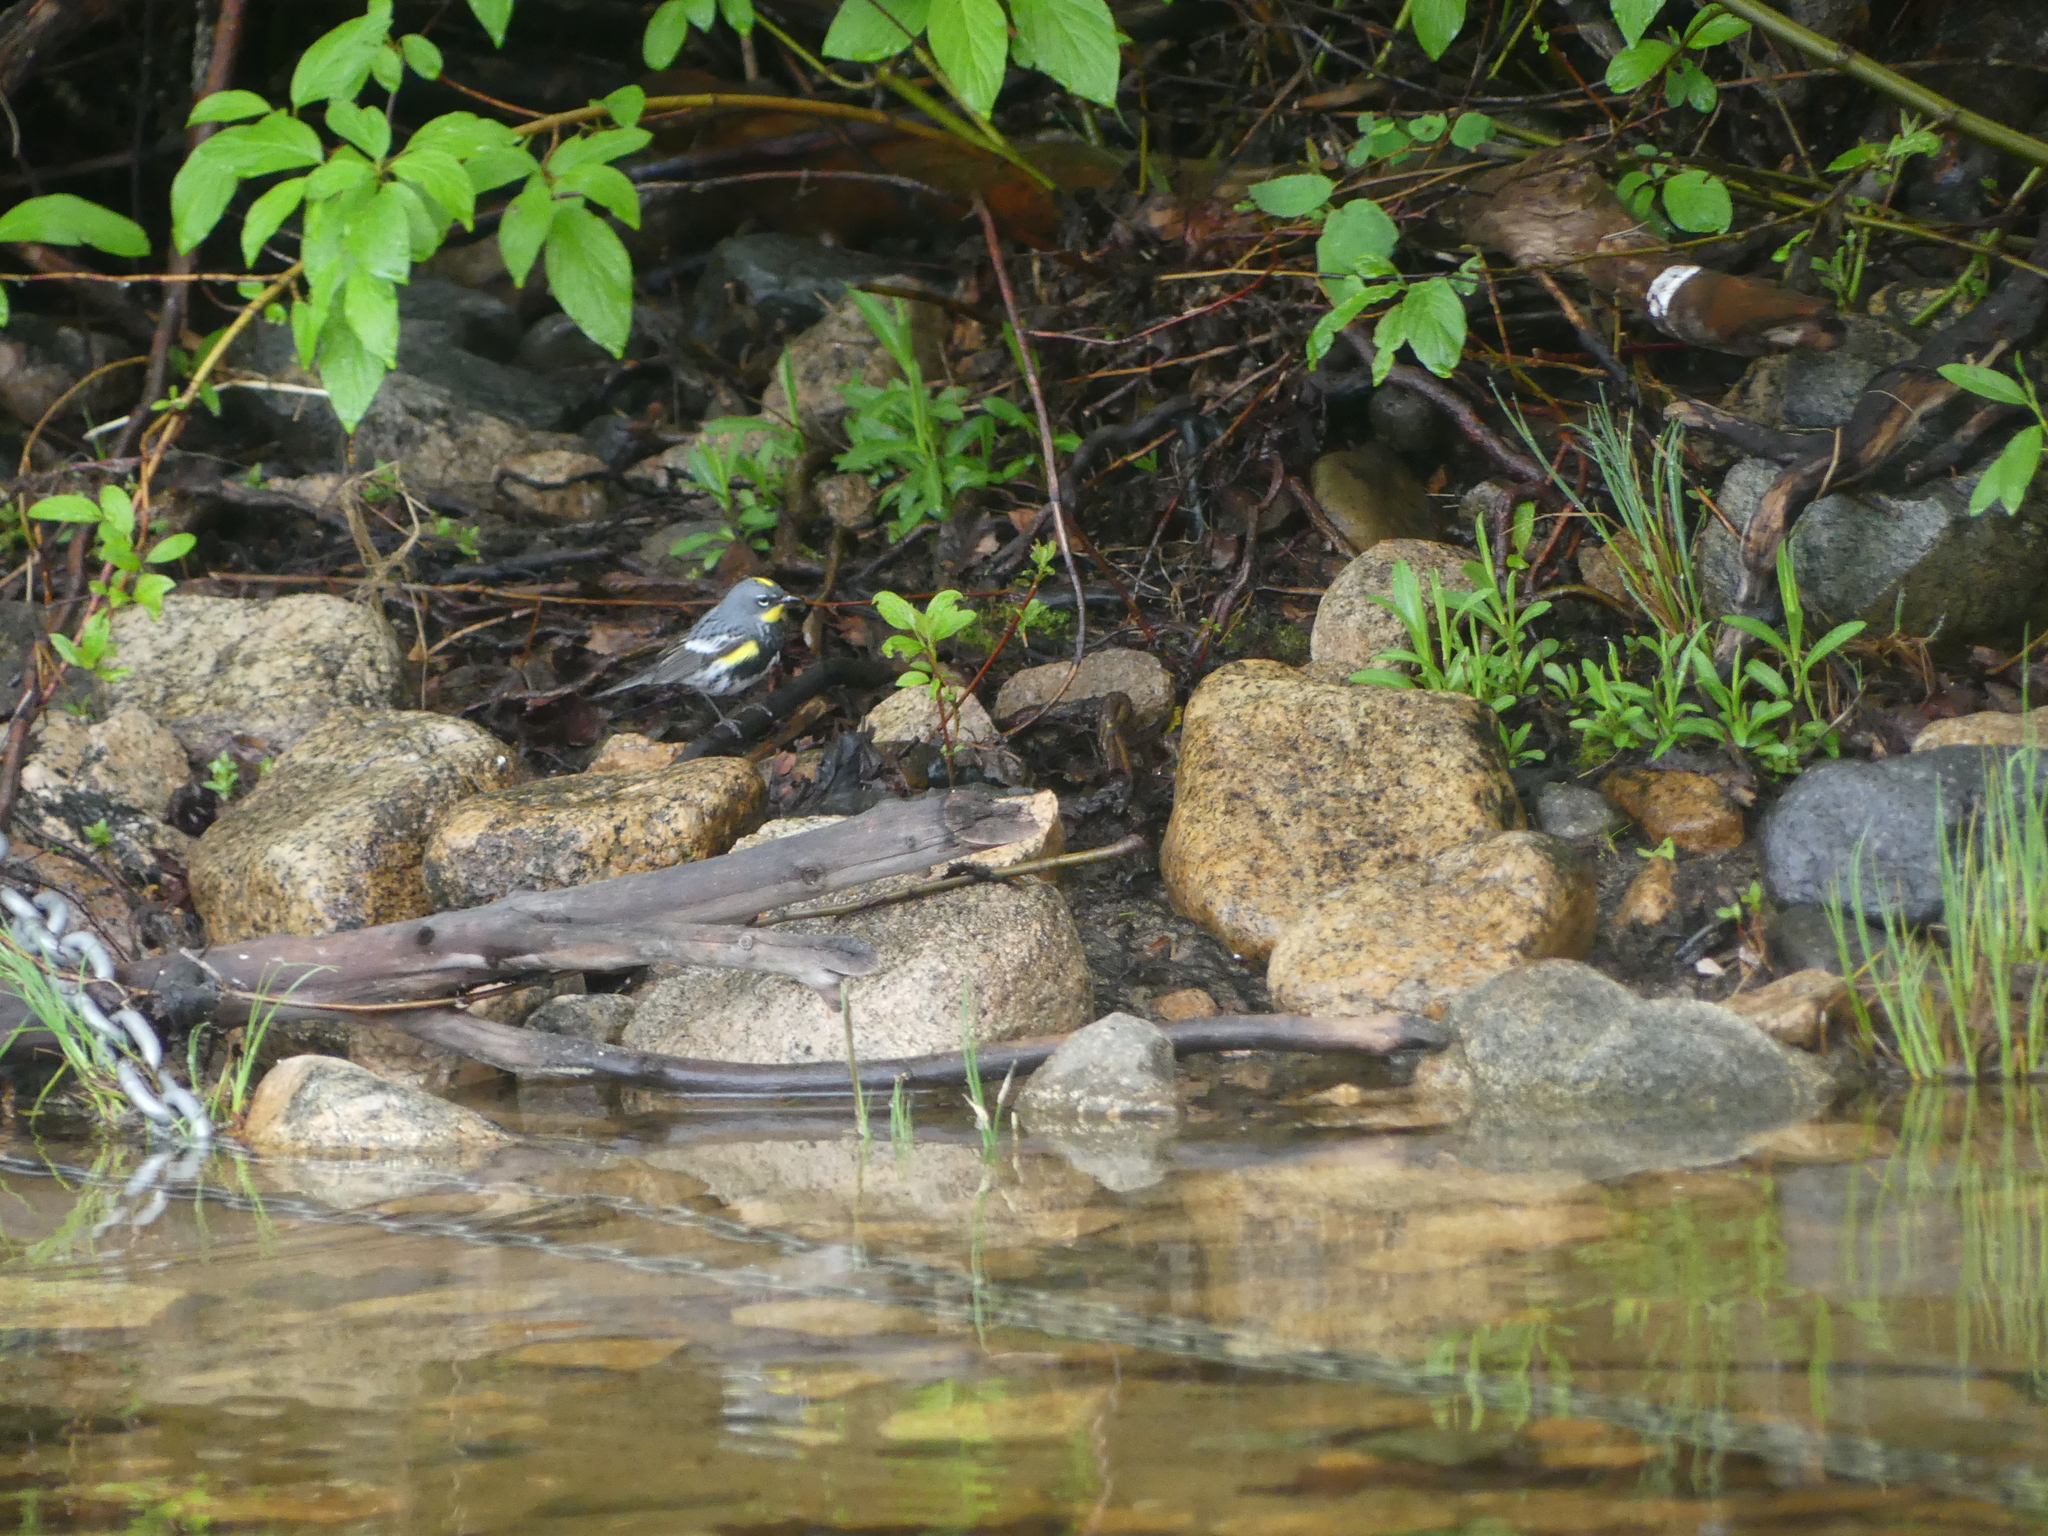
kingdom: Animalia
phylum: Chordata
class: Aves
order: Passeriformes
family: Parulidae
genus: Setophaga
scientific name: Setophaga auduboni
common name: Audubon's warbler
